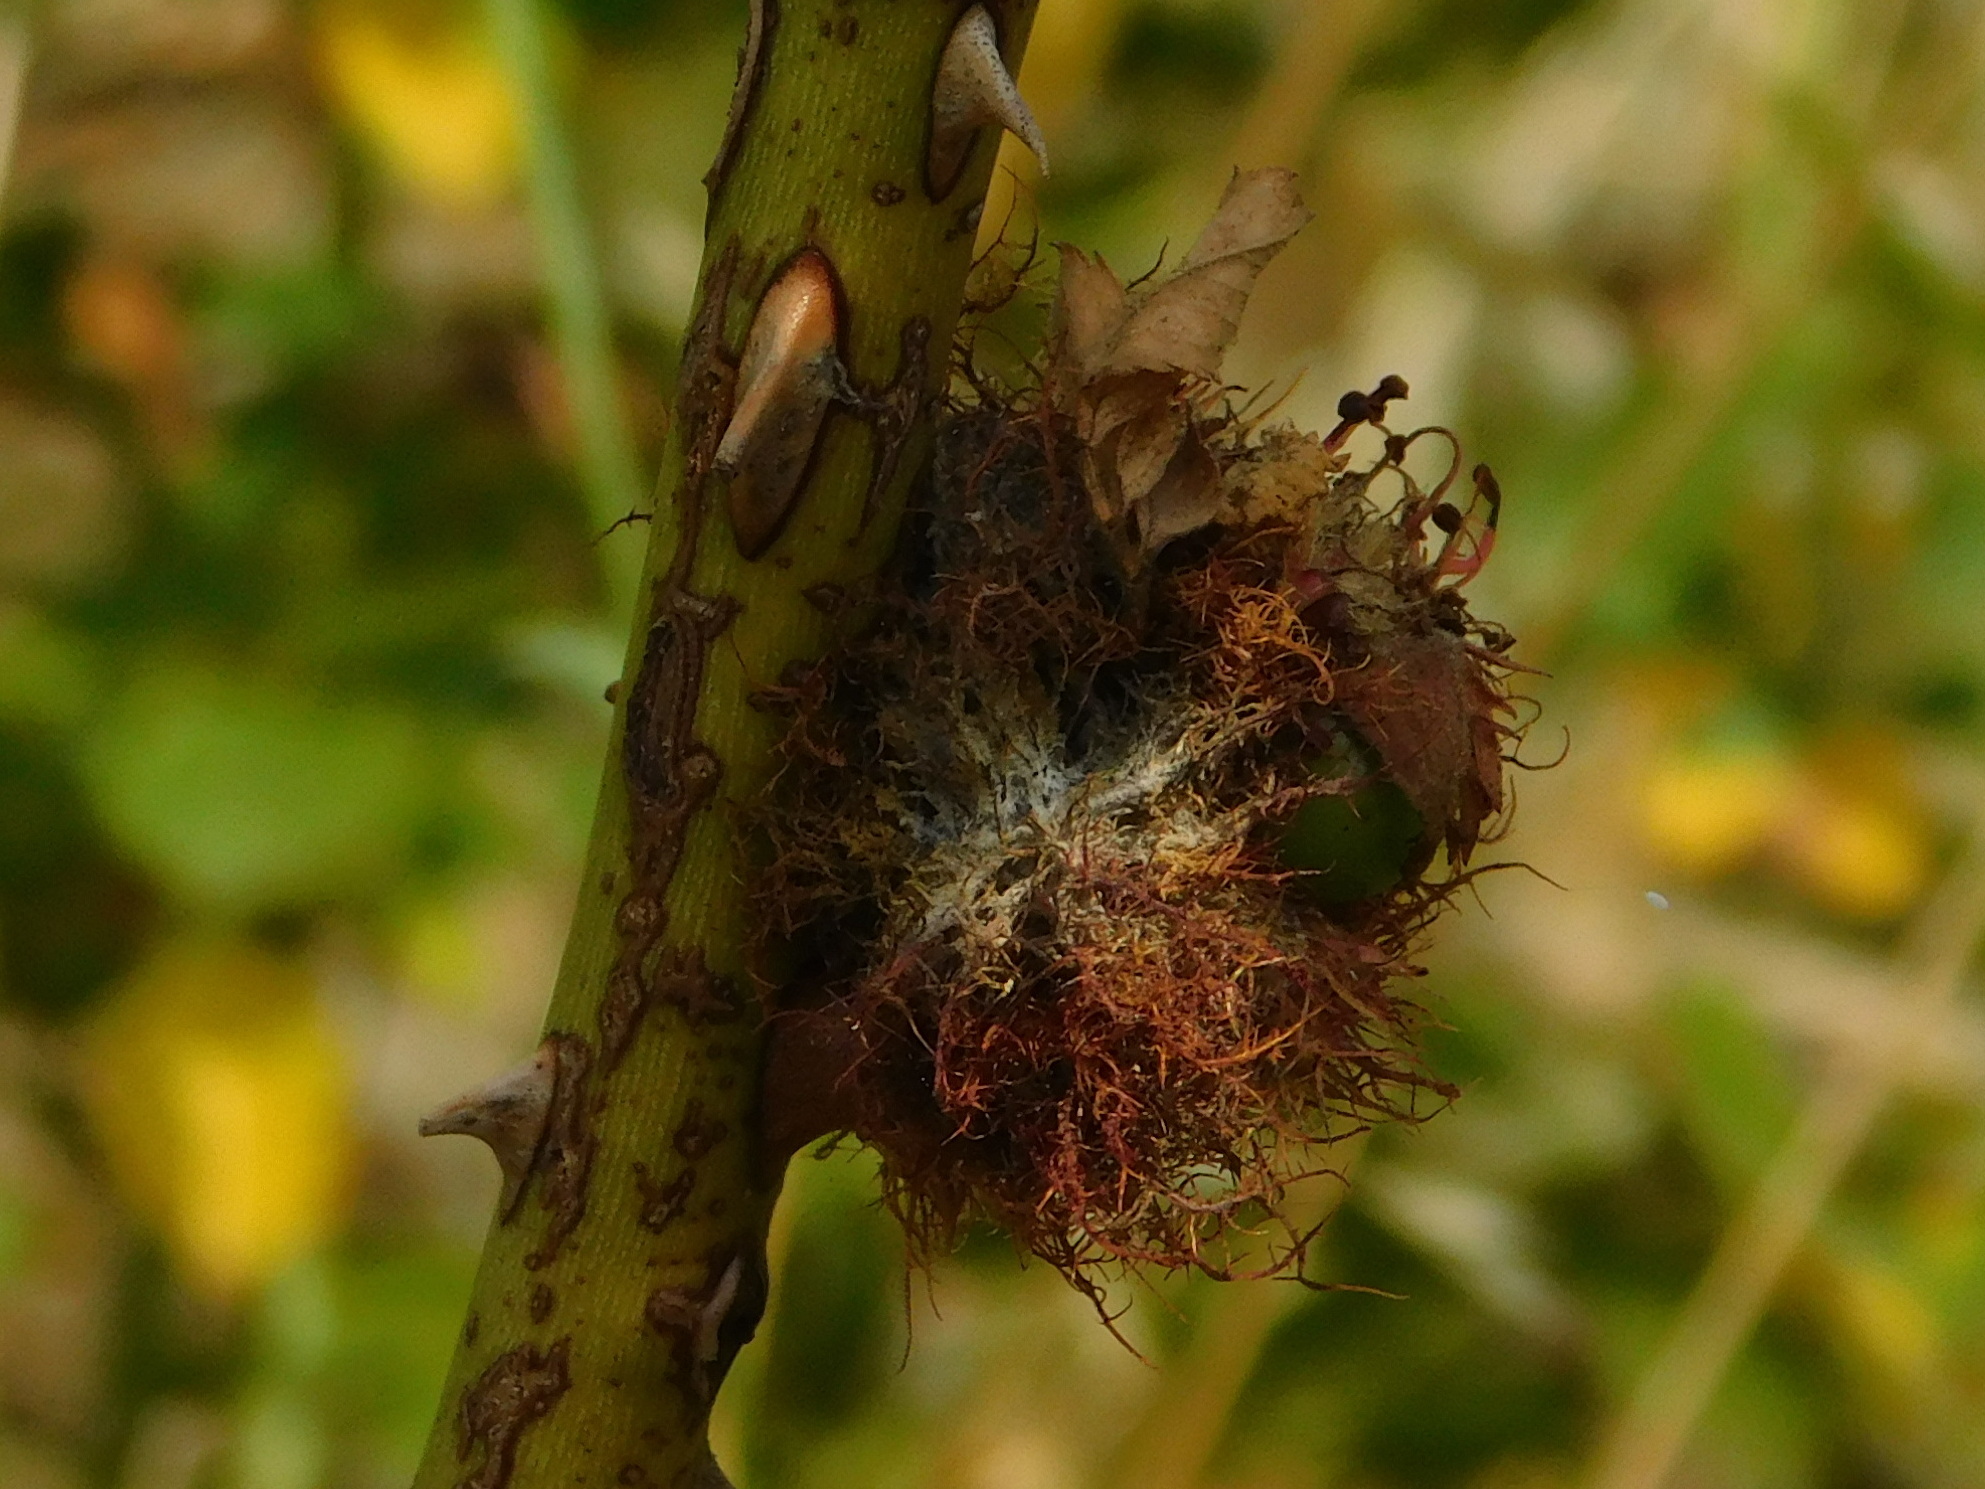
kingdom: Animalia
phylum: Arthropoda
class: Insecta
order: Hymenoptera
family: Cynipidae
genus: Diplolepis
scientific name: Diplolepis rosae
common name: Bedeguar gall
